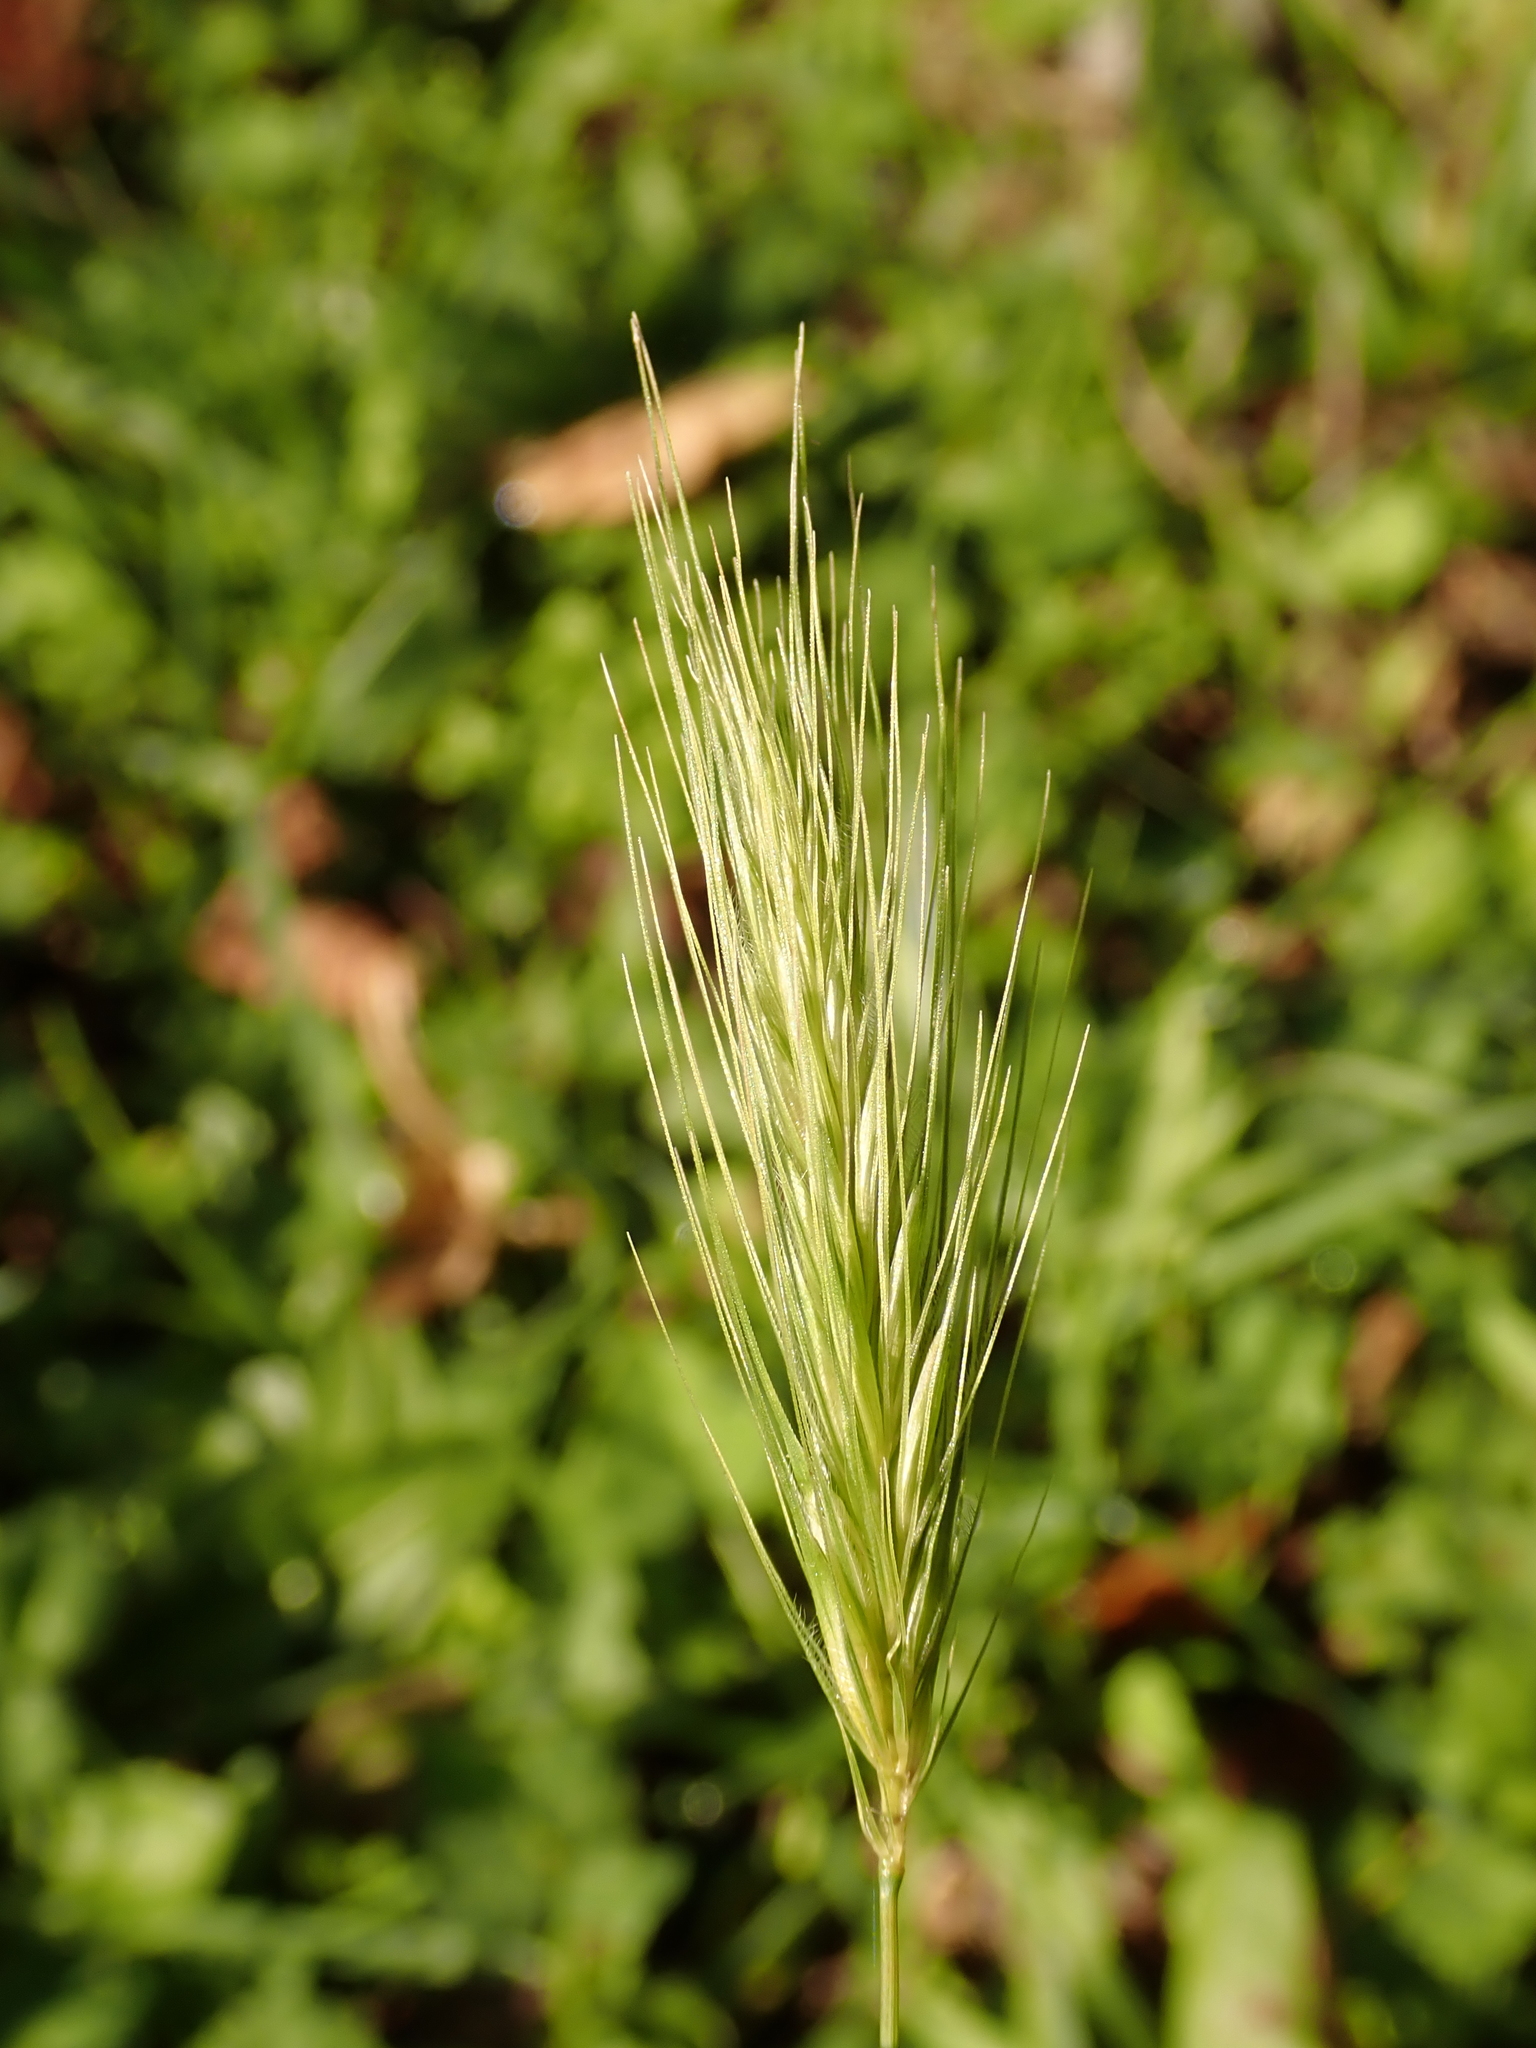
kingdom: Plantae
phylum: Tracheophyta
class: Liliopsida
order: Poales
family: Poaceae
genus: Hordeum
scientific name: Hordeum murinum
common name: Wall barley
